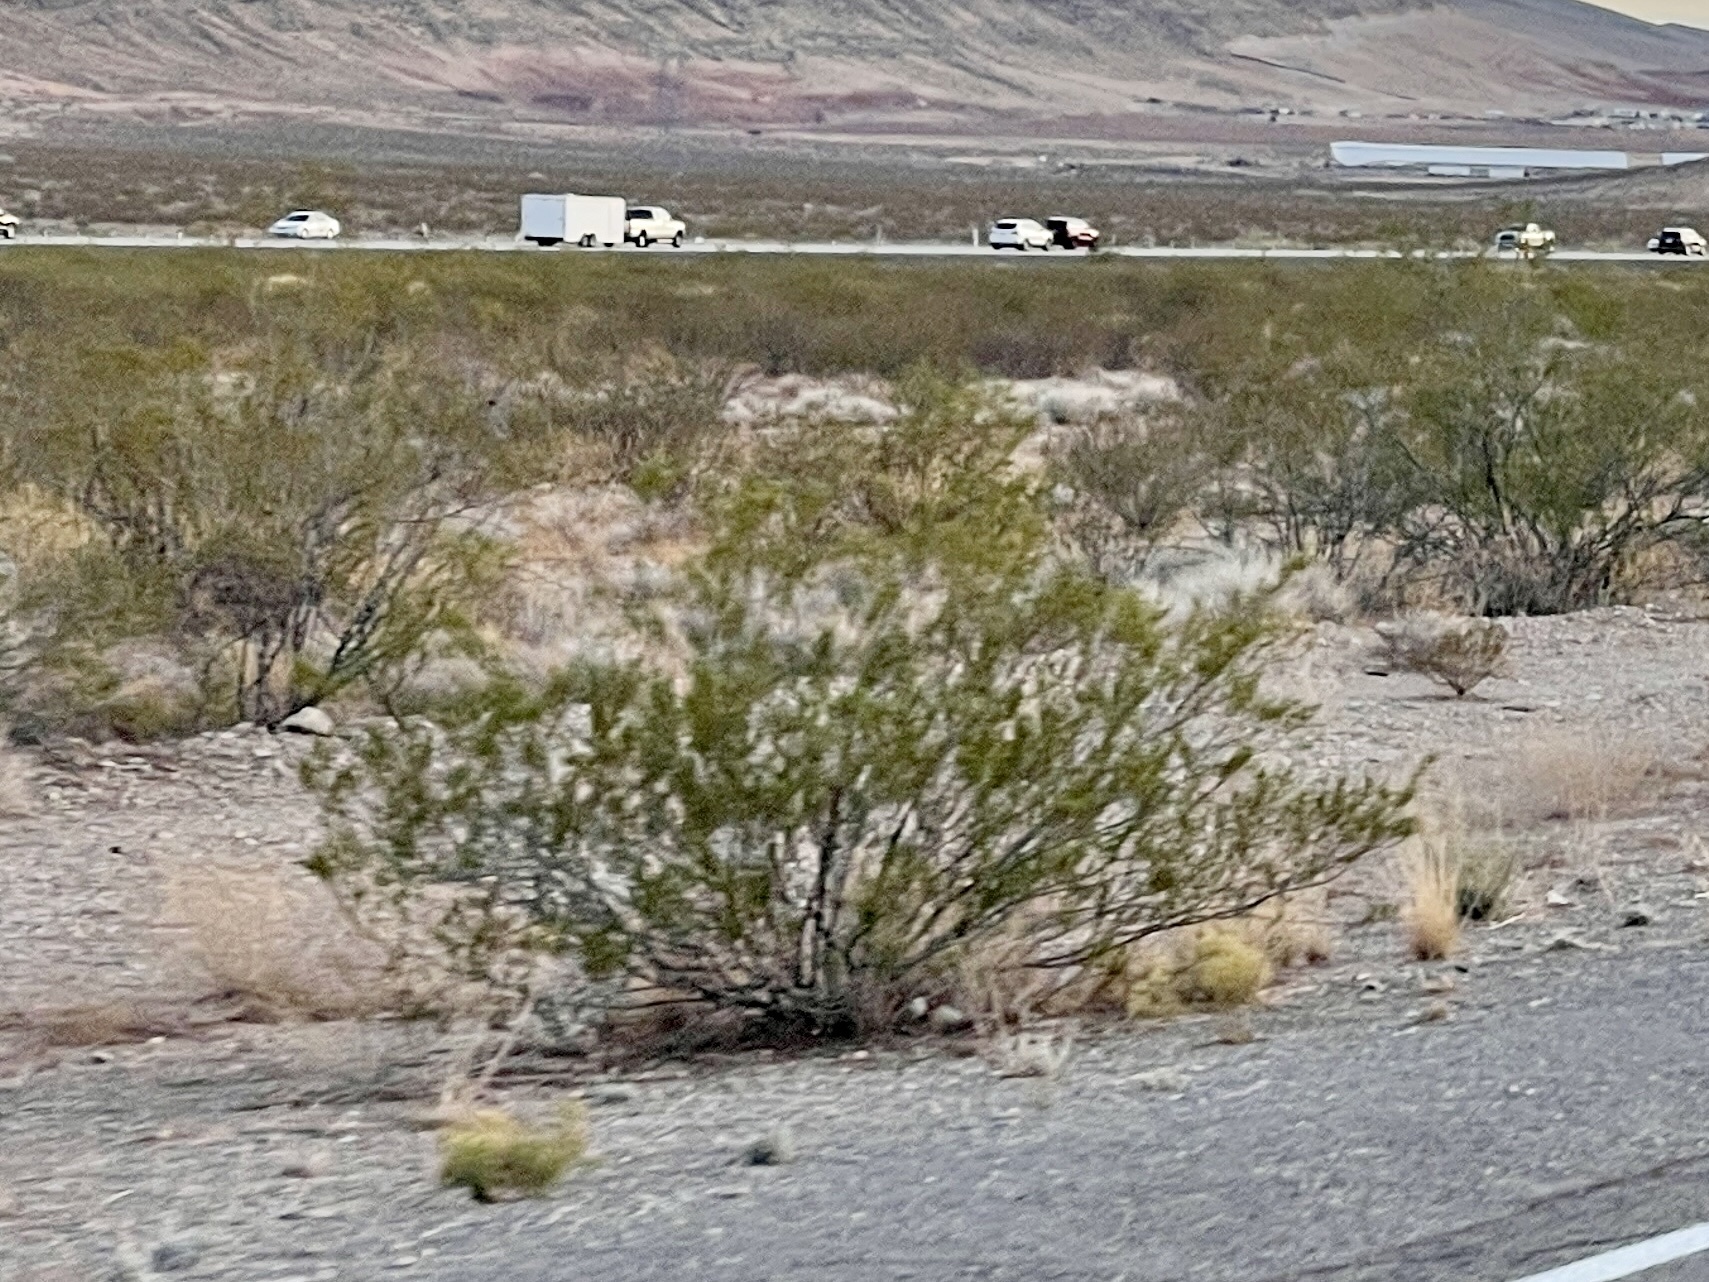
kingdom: Plantae
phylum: Tracheophyta
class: Magnoliopsida
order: Zygophyllales
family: Zygophyllaceae
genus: Larrea
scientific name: Larrea tridentata
